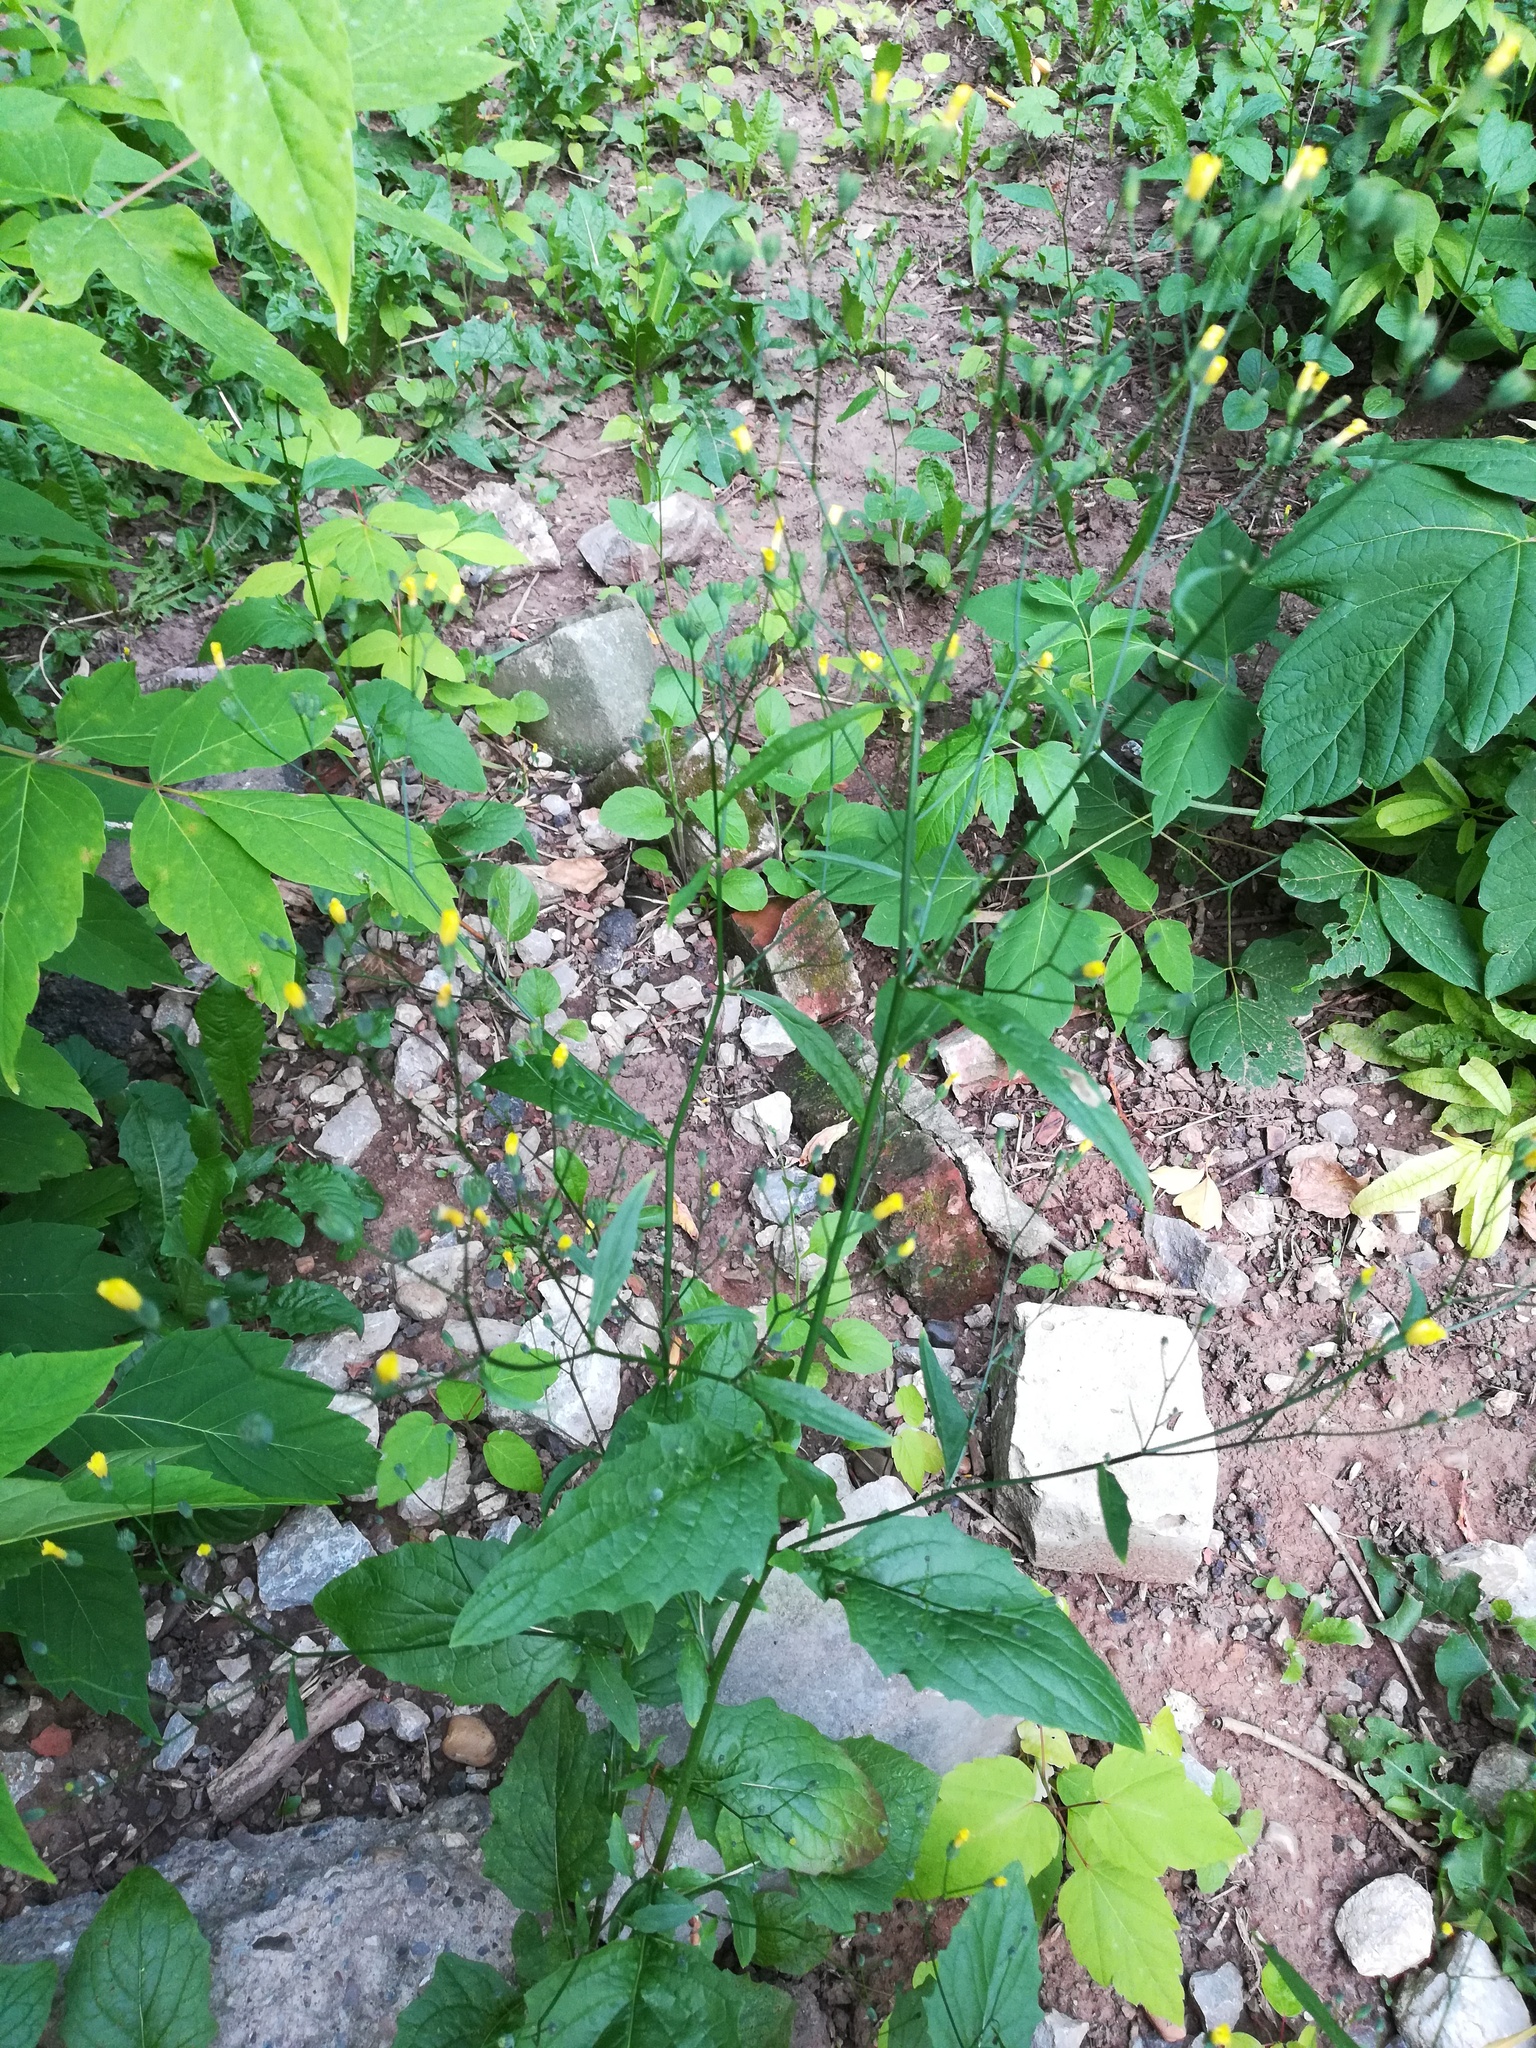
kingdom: Plantae
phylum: Tracheophyta
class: Magnoliopsida
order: Asterales
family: Asteraceae
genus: Lapsana
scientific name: Lapsana communis
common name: Nipplewort
